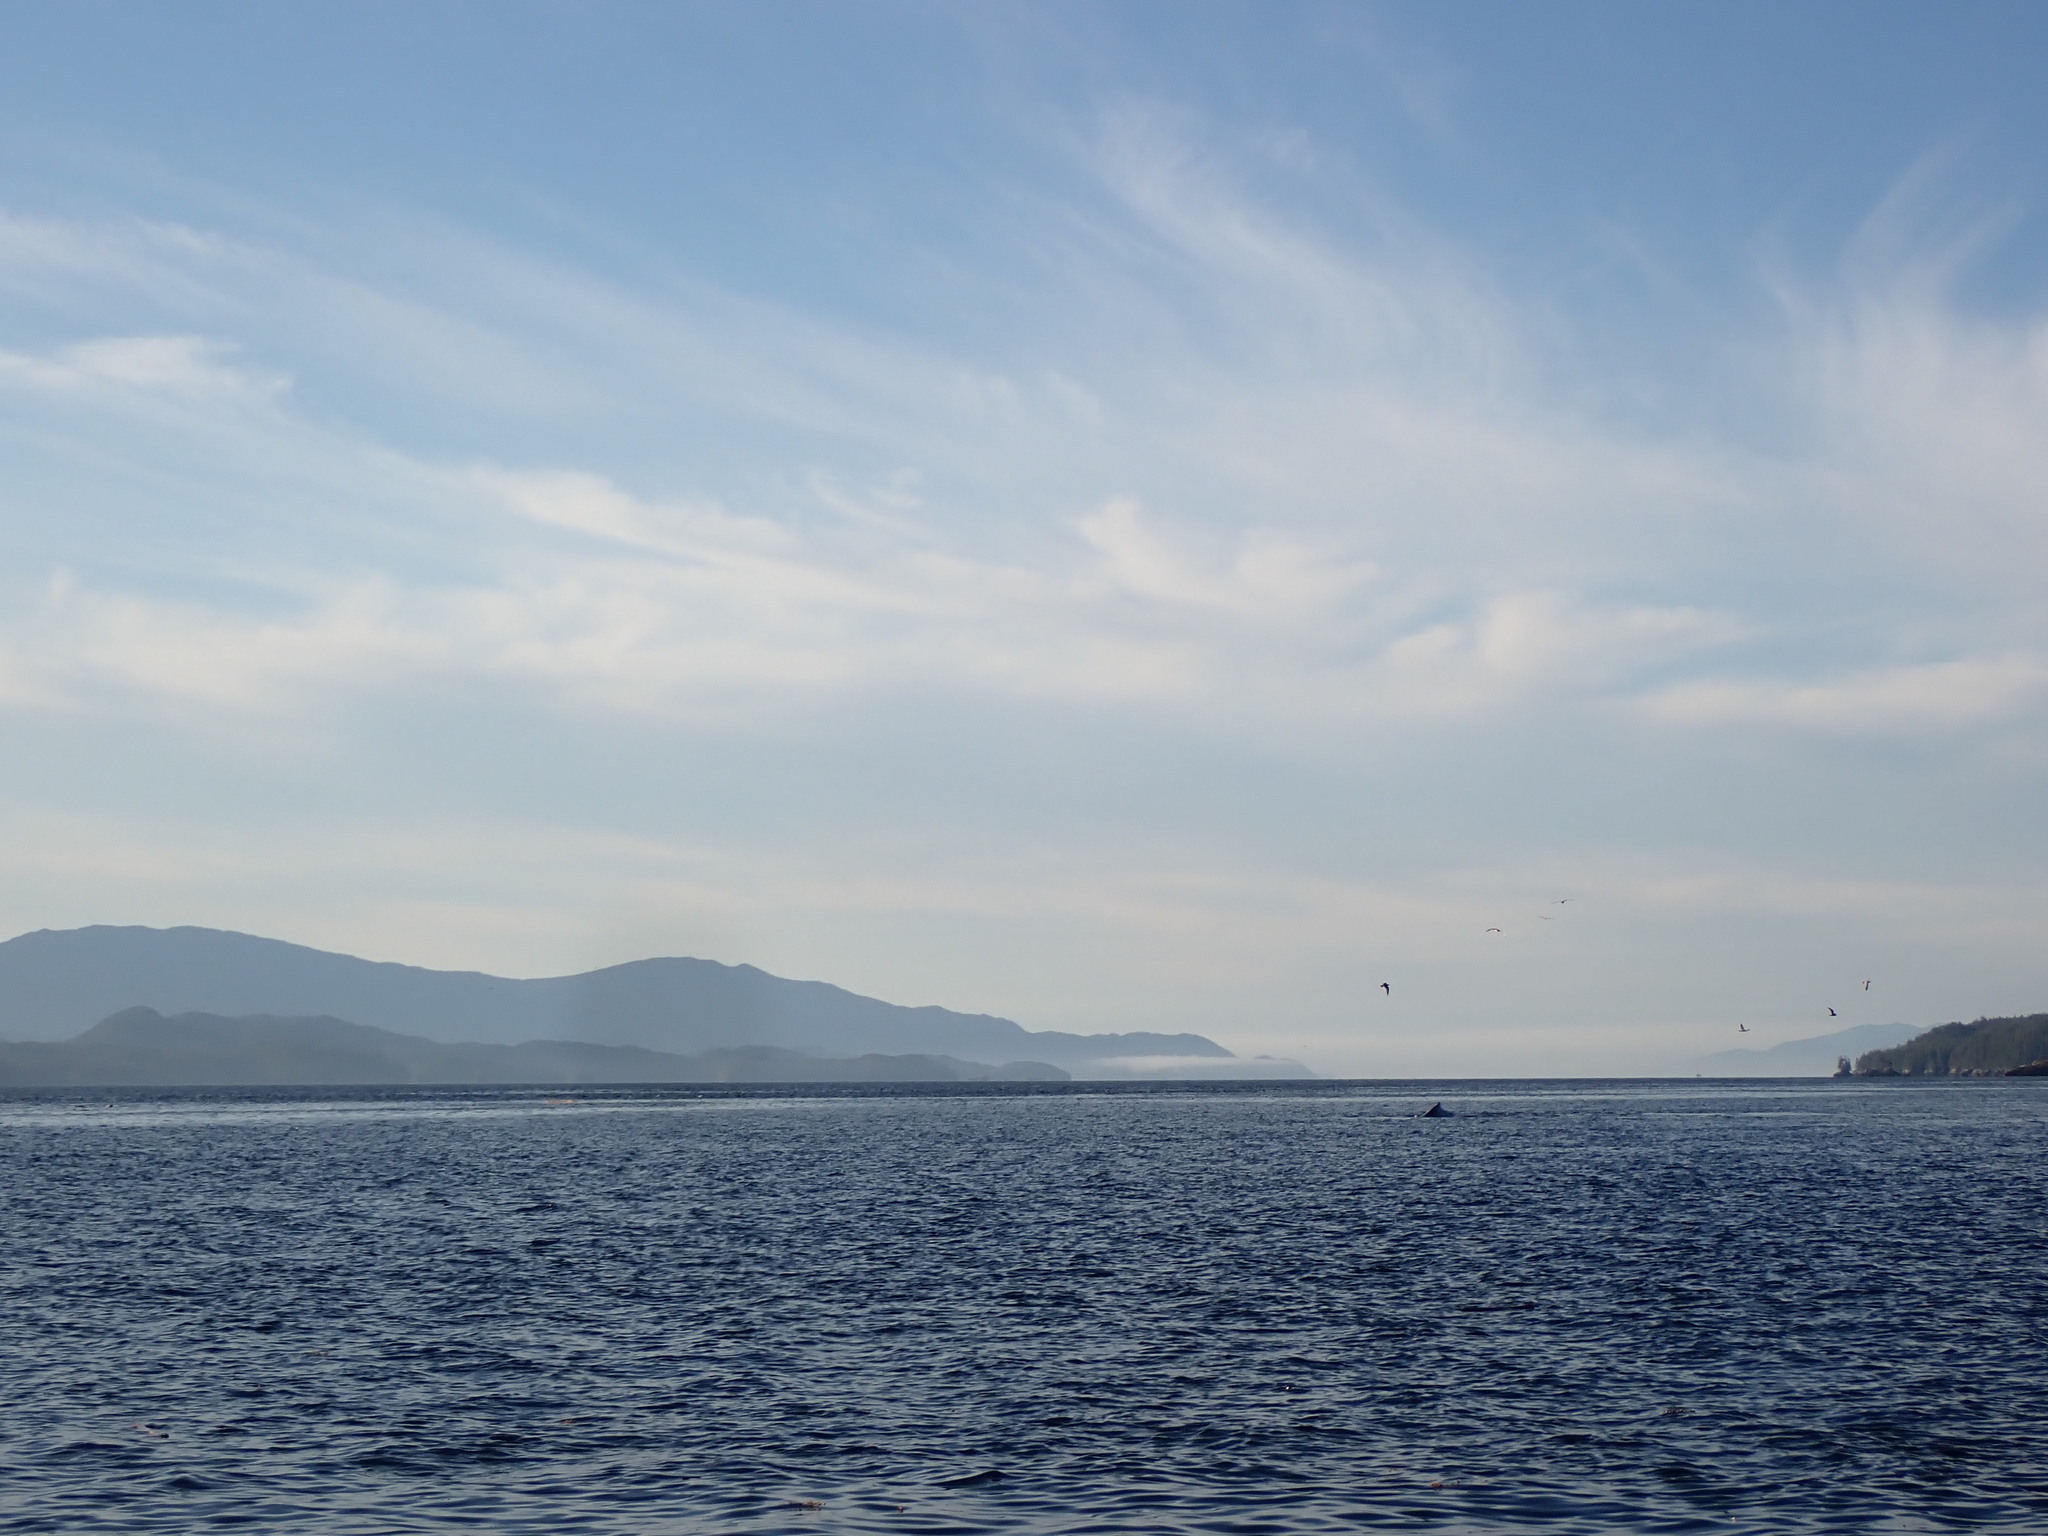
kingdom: Animalia
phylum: Chordata
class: Mammalia
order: Cetacea
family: Balaenopteridae
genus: Megaptera
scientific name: Megaptera novaeangliae
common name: Humpback whale
